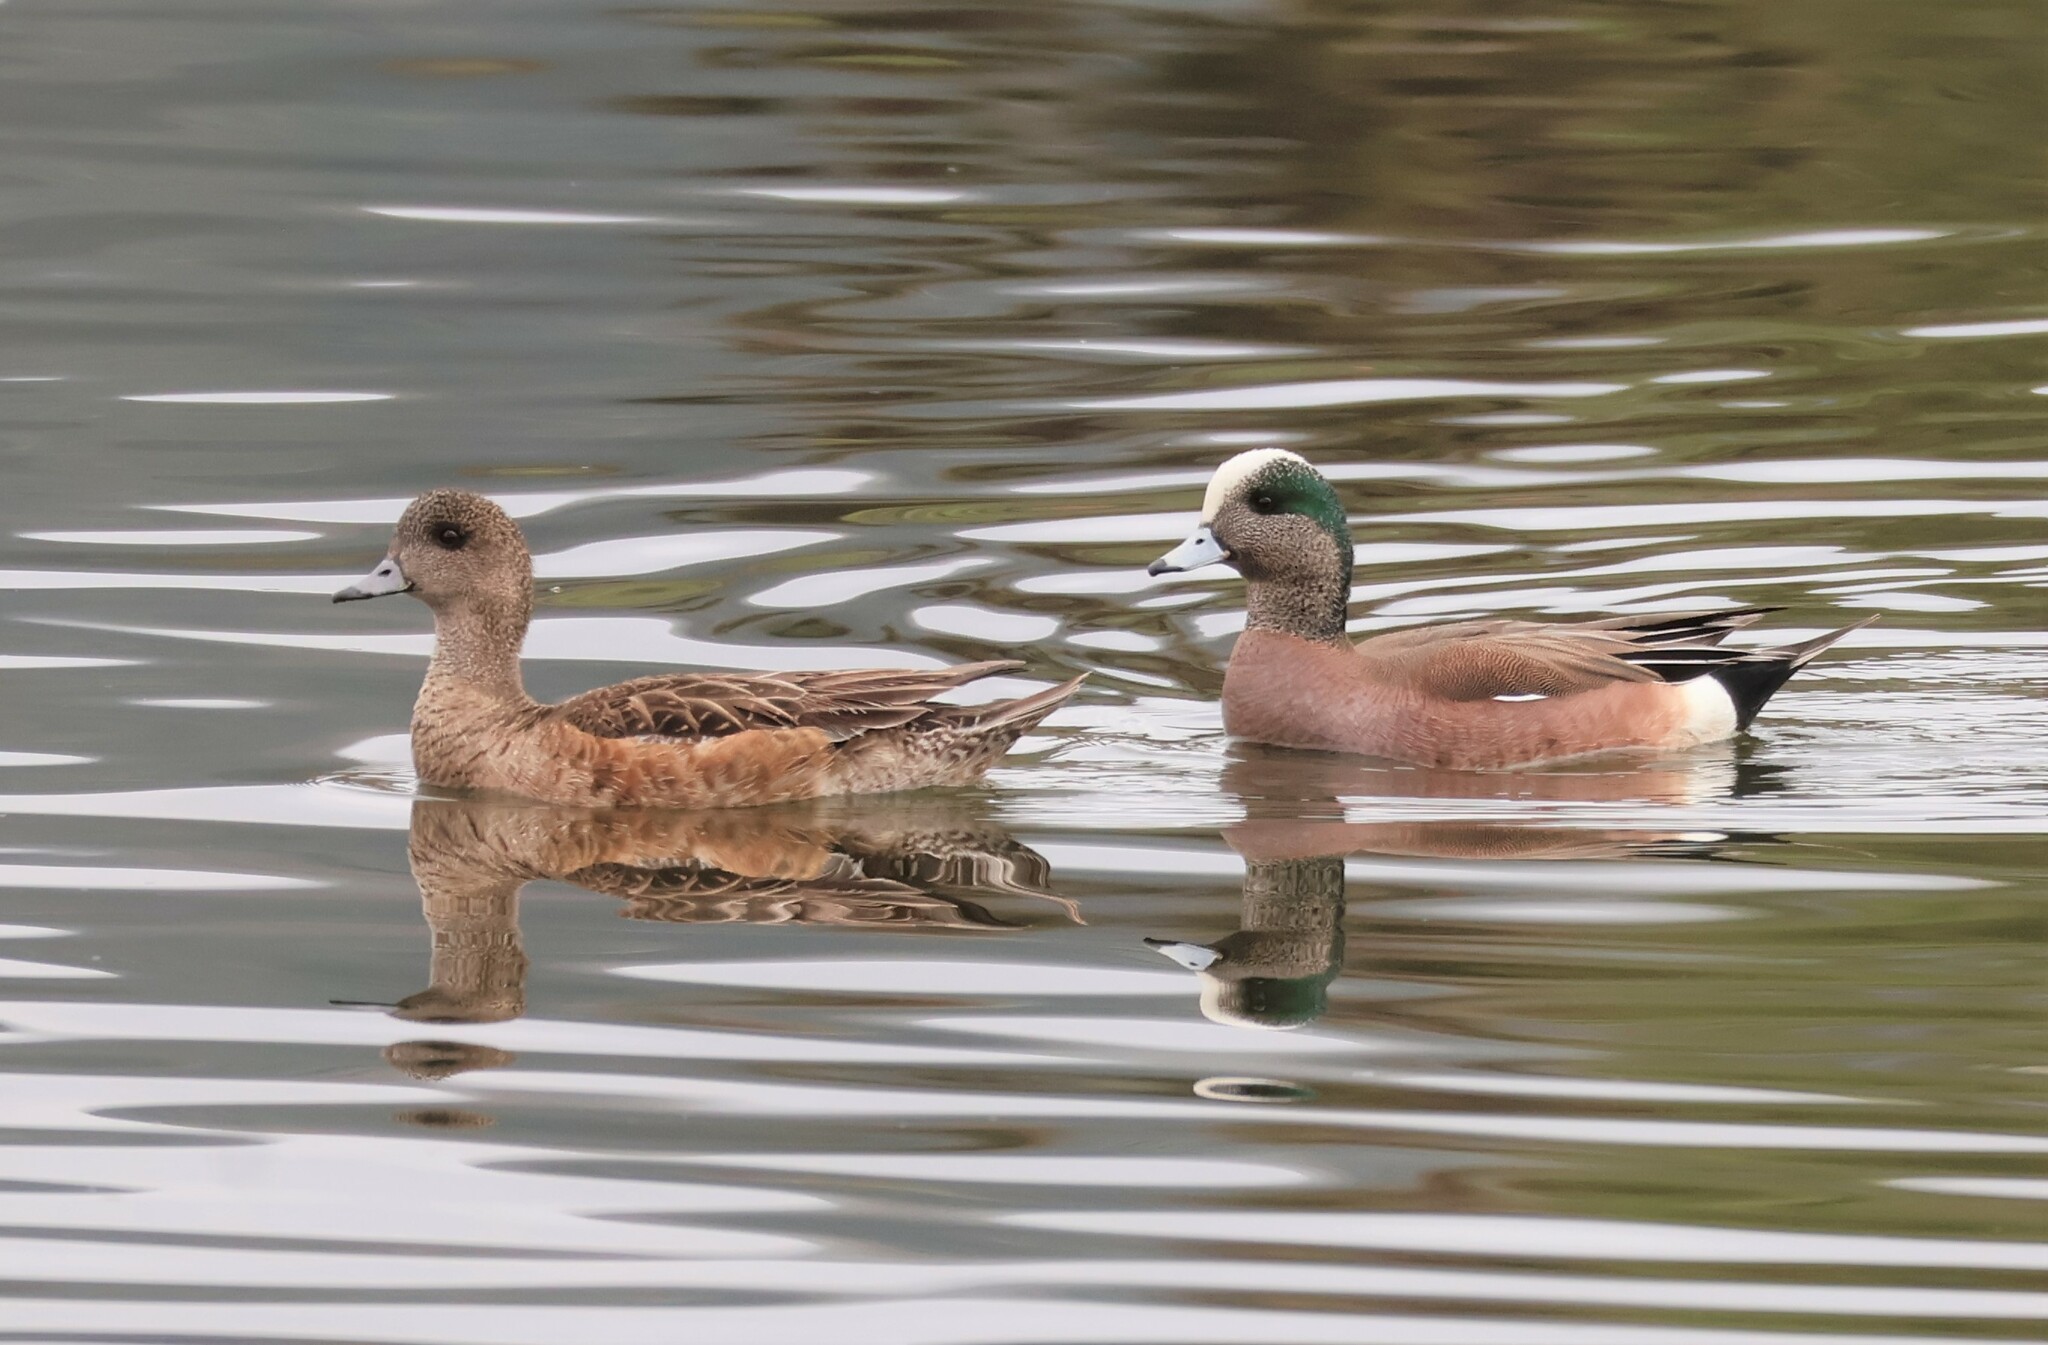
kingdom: Animalia
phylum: Chordata
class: Aves
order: Anseriformes
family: Anatidae
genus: Mareca
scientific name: Mareca americana
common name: American wigeon
